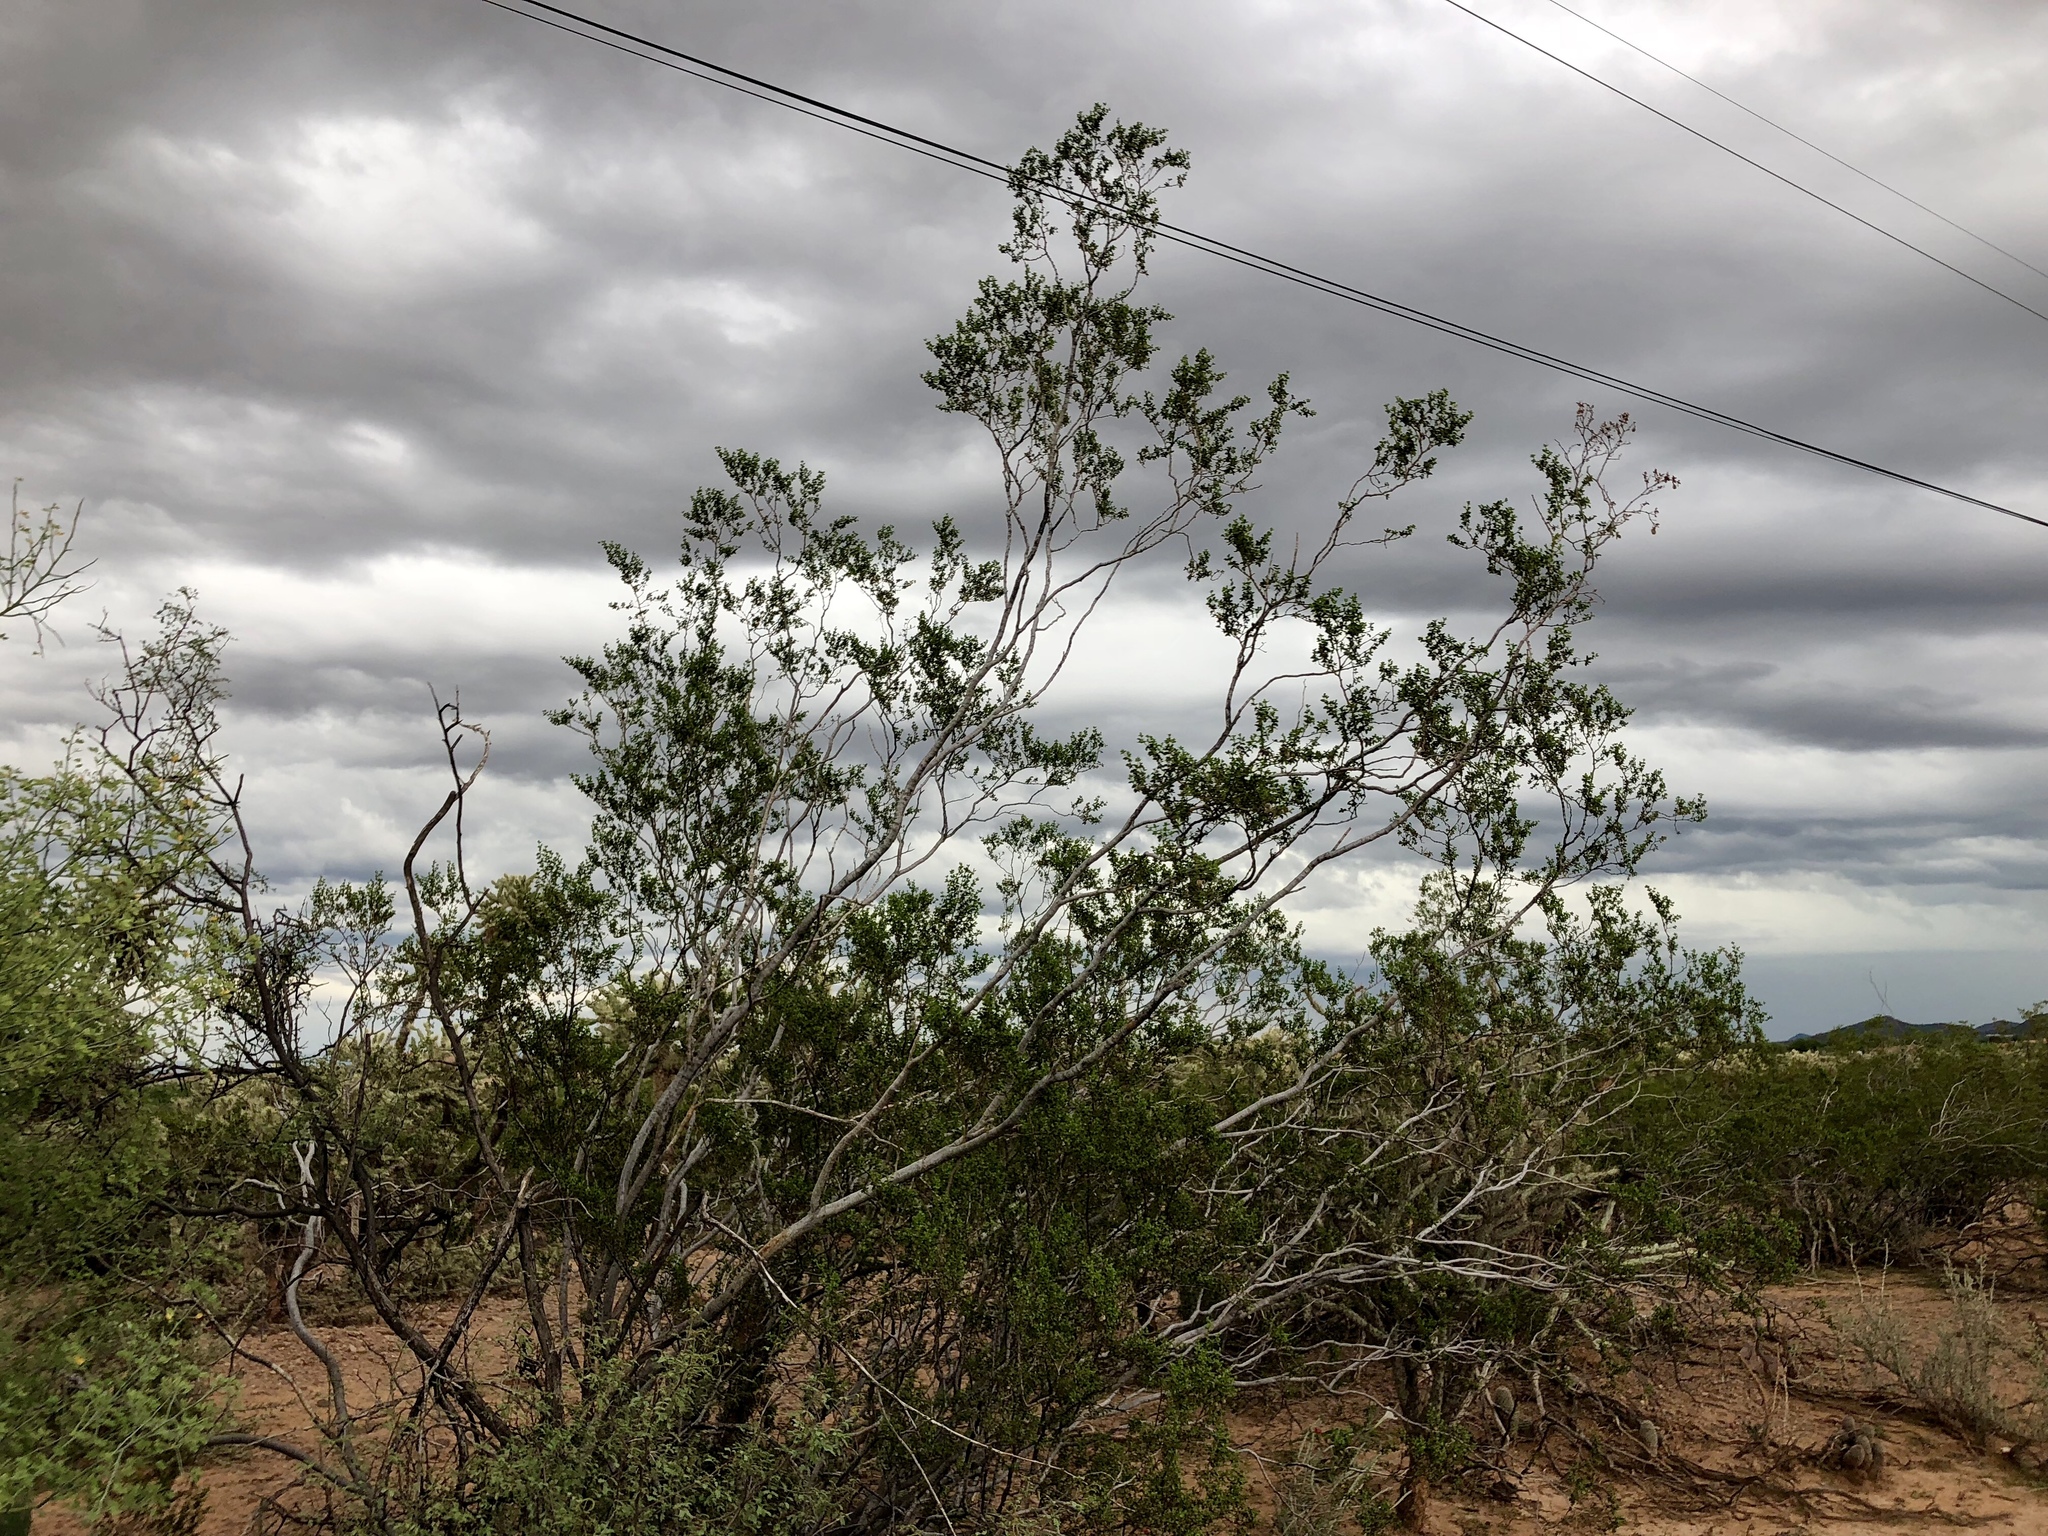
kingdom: Plantae
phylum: Tracheophyta
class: Magnoliopsida
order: Zygophyllales
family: Zygophyllaceae
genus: Larrea
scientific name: Larrea tridentata
